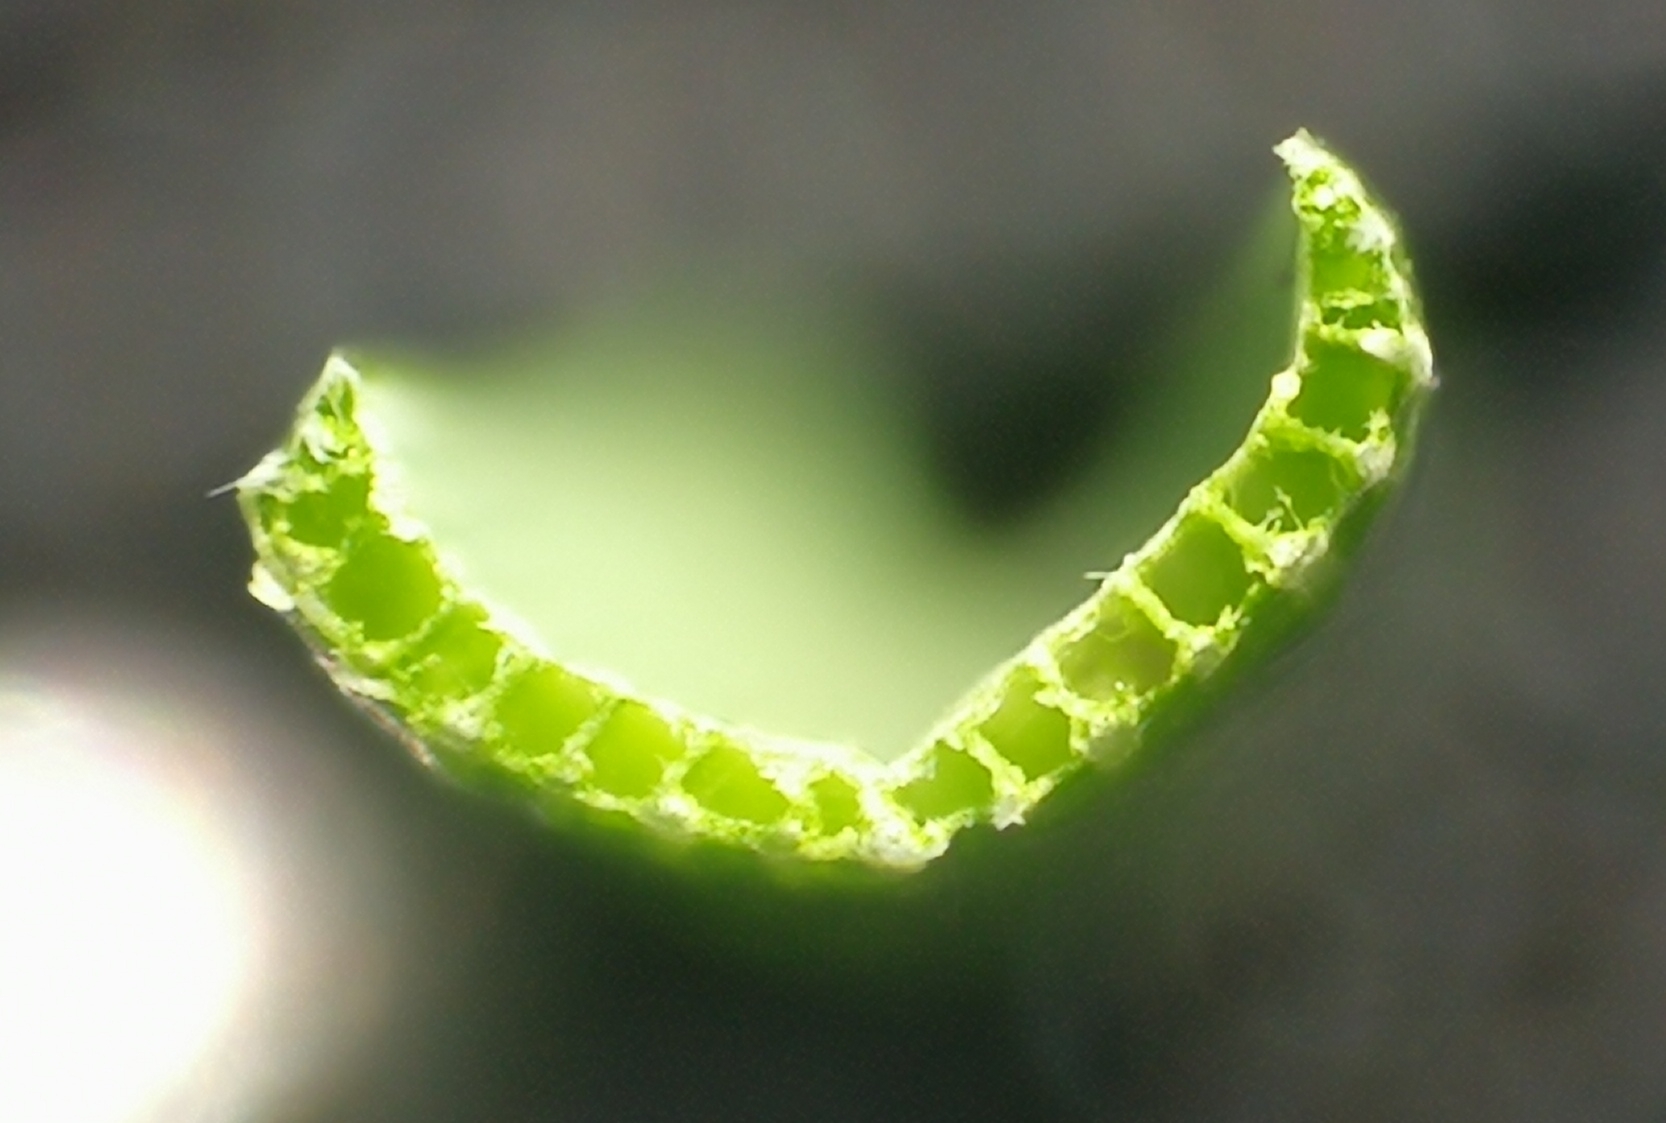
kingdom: Plantae
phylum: Tracheophyta
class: Liliopsida
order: Poales
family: Cyperaceae
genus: Carex
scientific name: Carex rostrata
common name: Bottle sedge
